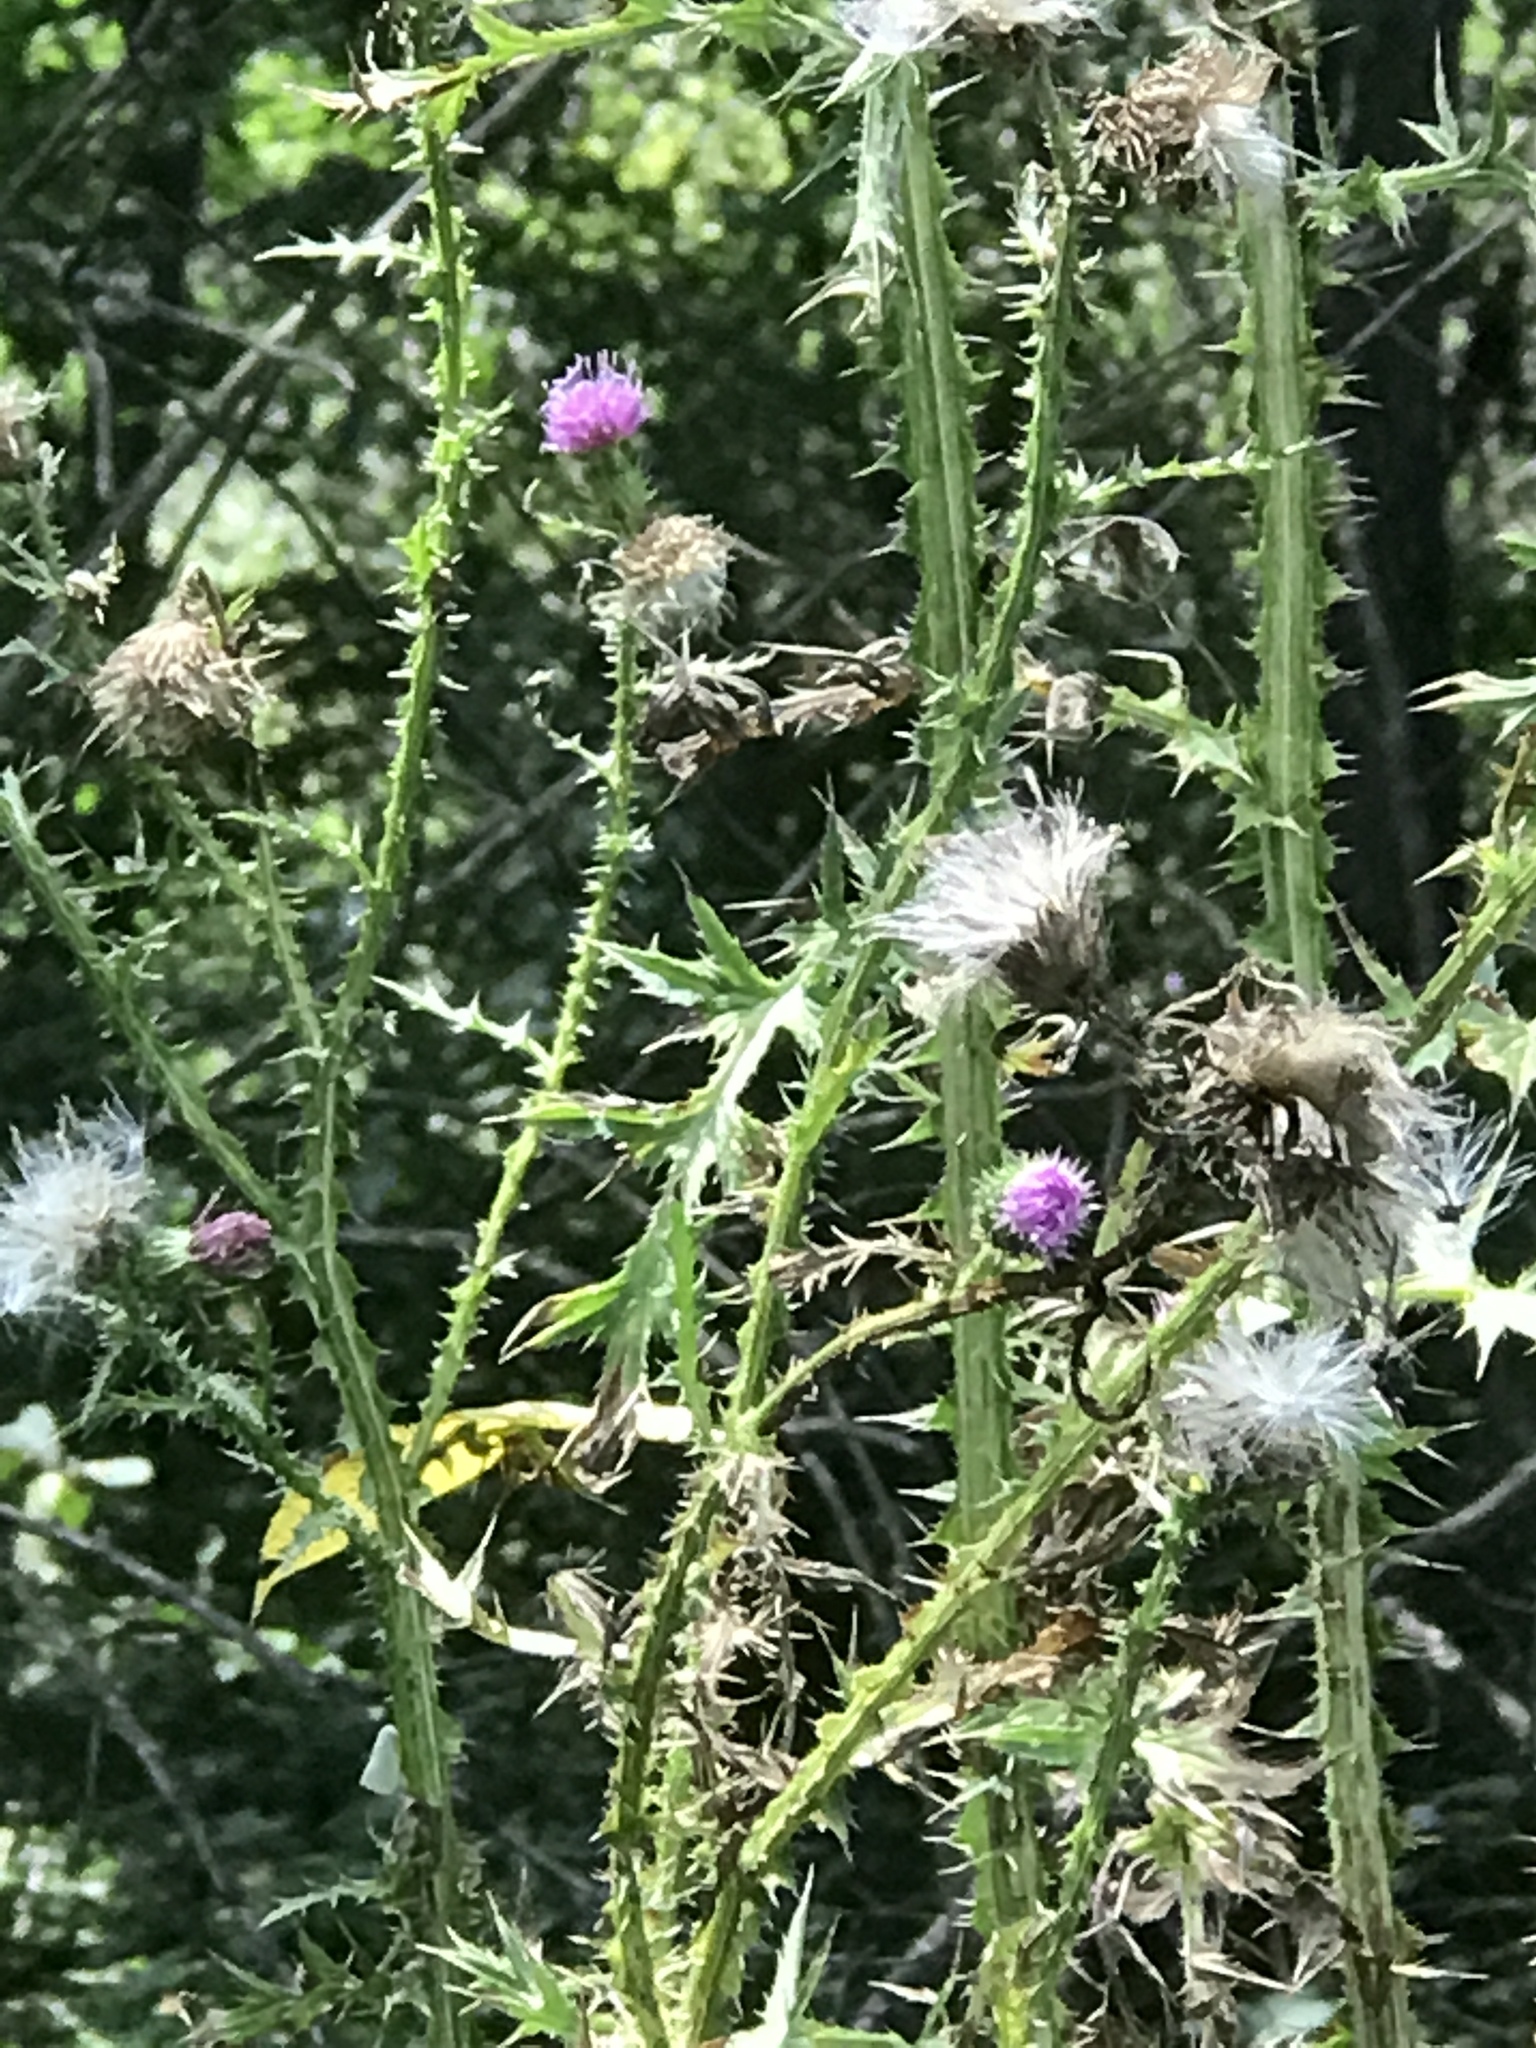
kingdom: Plantae
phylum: Tracheophyta
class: Magnoliopsida
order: Asterales
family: Asteraceae
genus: Carduus
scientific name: Carduus acanthoides
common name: Plumeless thistle
